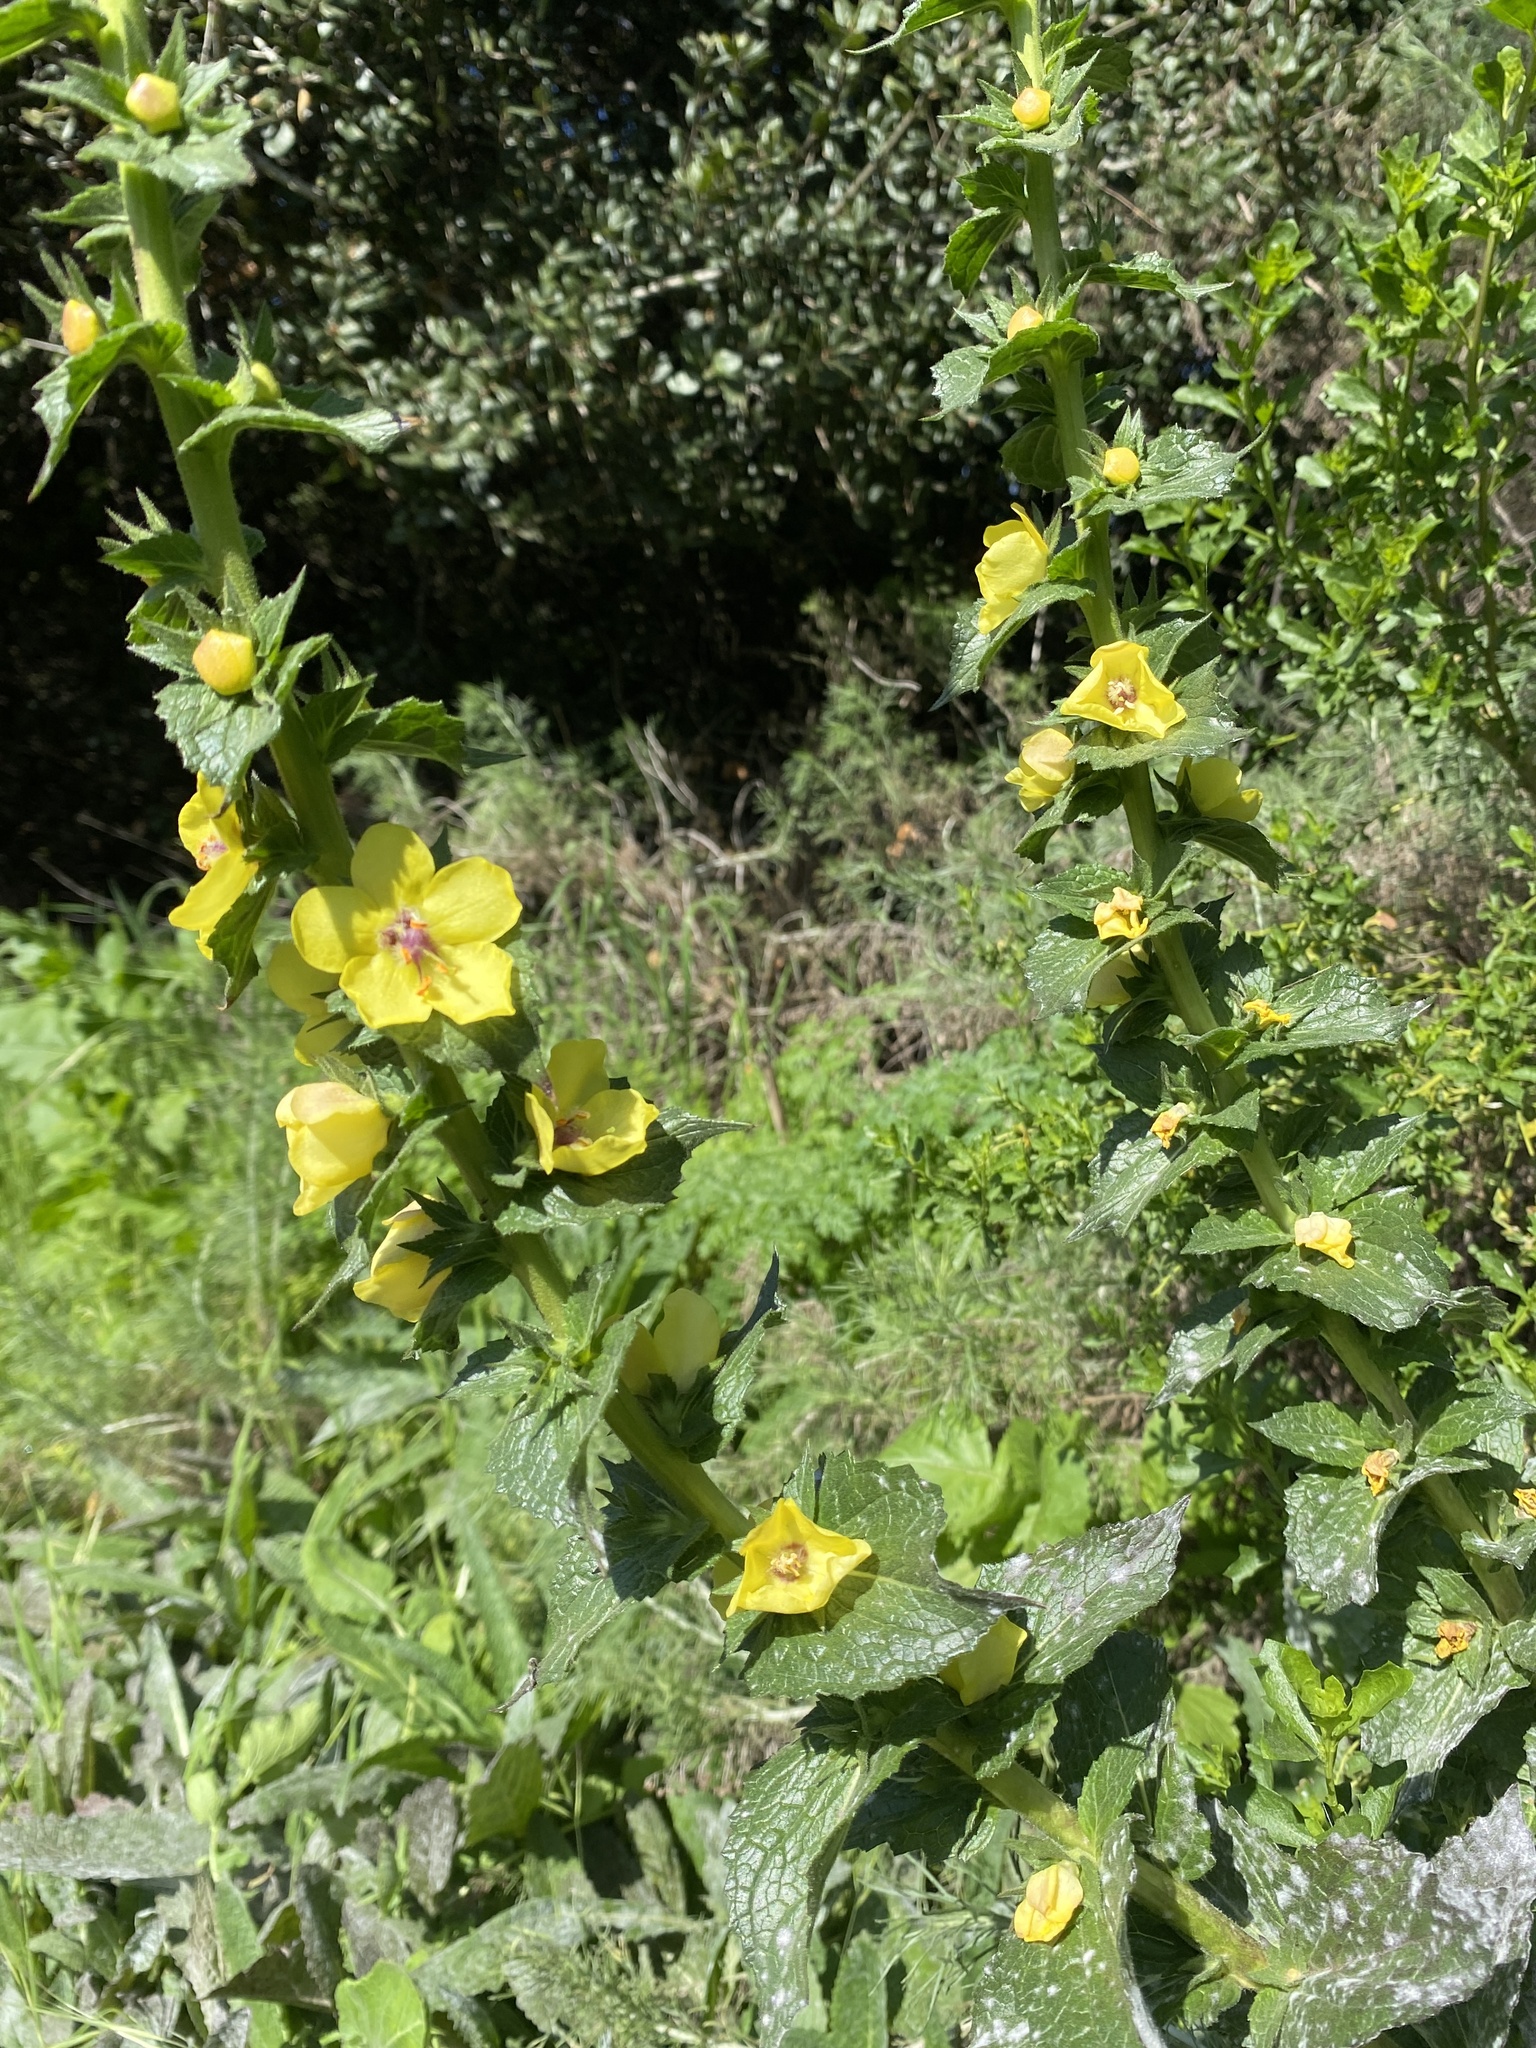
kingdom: Plantae
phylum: Tracheophyta
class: Magnoliopsida
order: Lamiales
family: Scrophulariaceae
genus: Verbascum
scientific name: Verbascum virgatum
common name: Twiggy mullein
